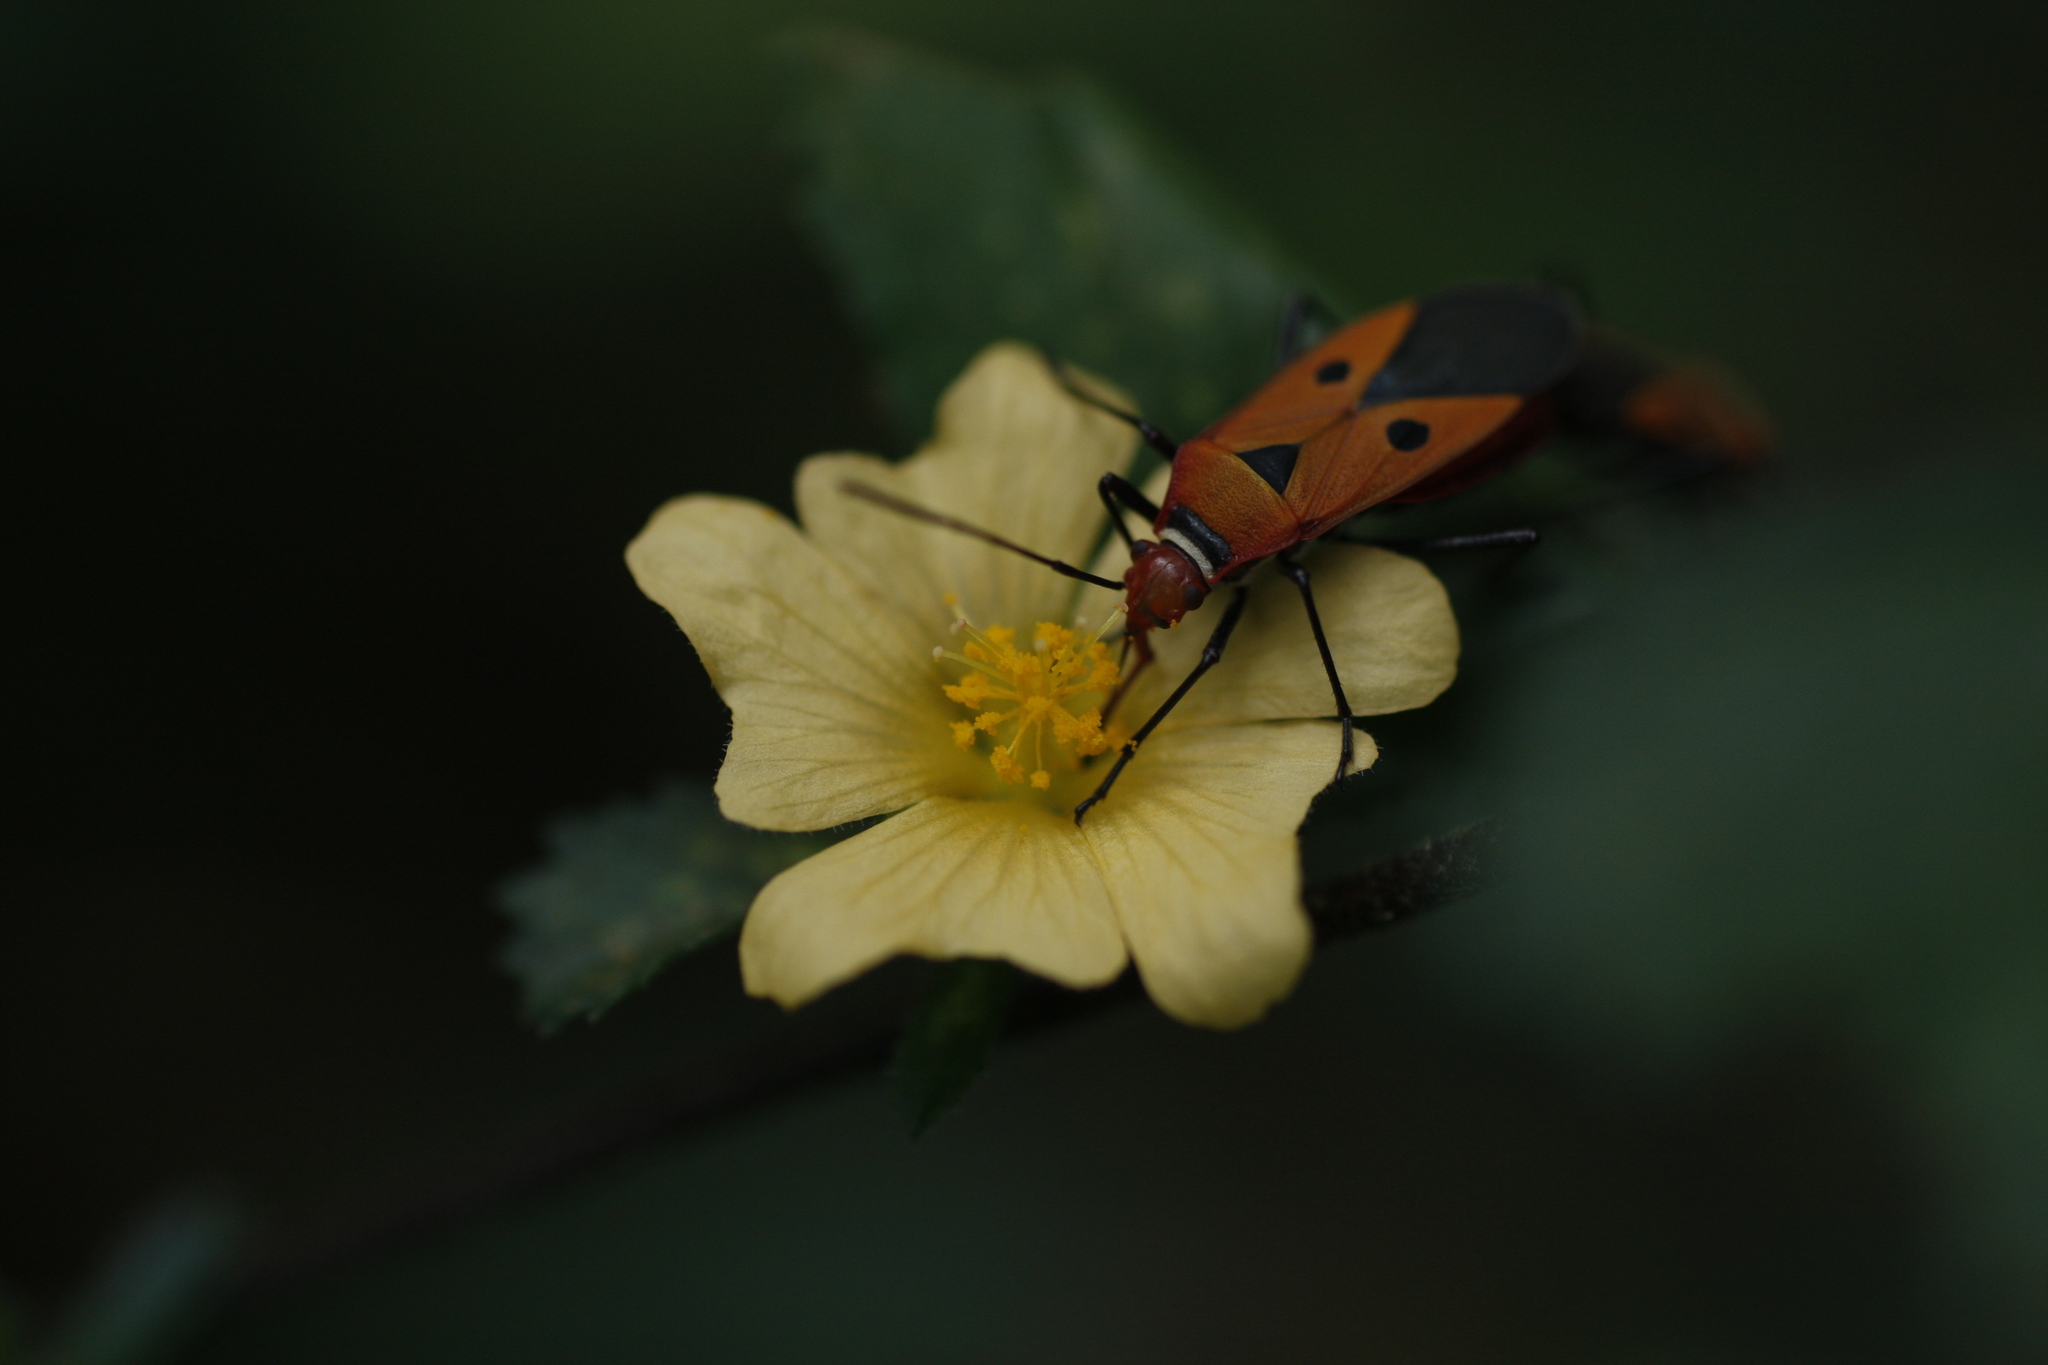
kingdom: Animalia
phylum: Arthropoda
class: Insecta
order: Hemiptera
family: Pyrrhocoridae
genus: Dysdercus
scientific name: Dysdercus cingulatus
